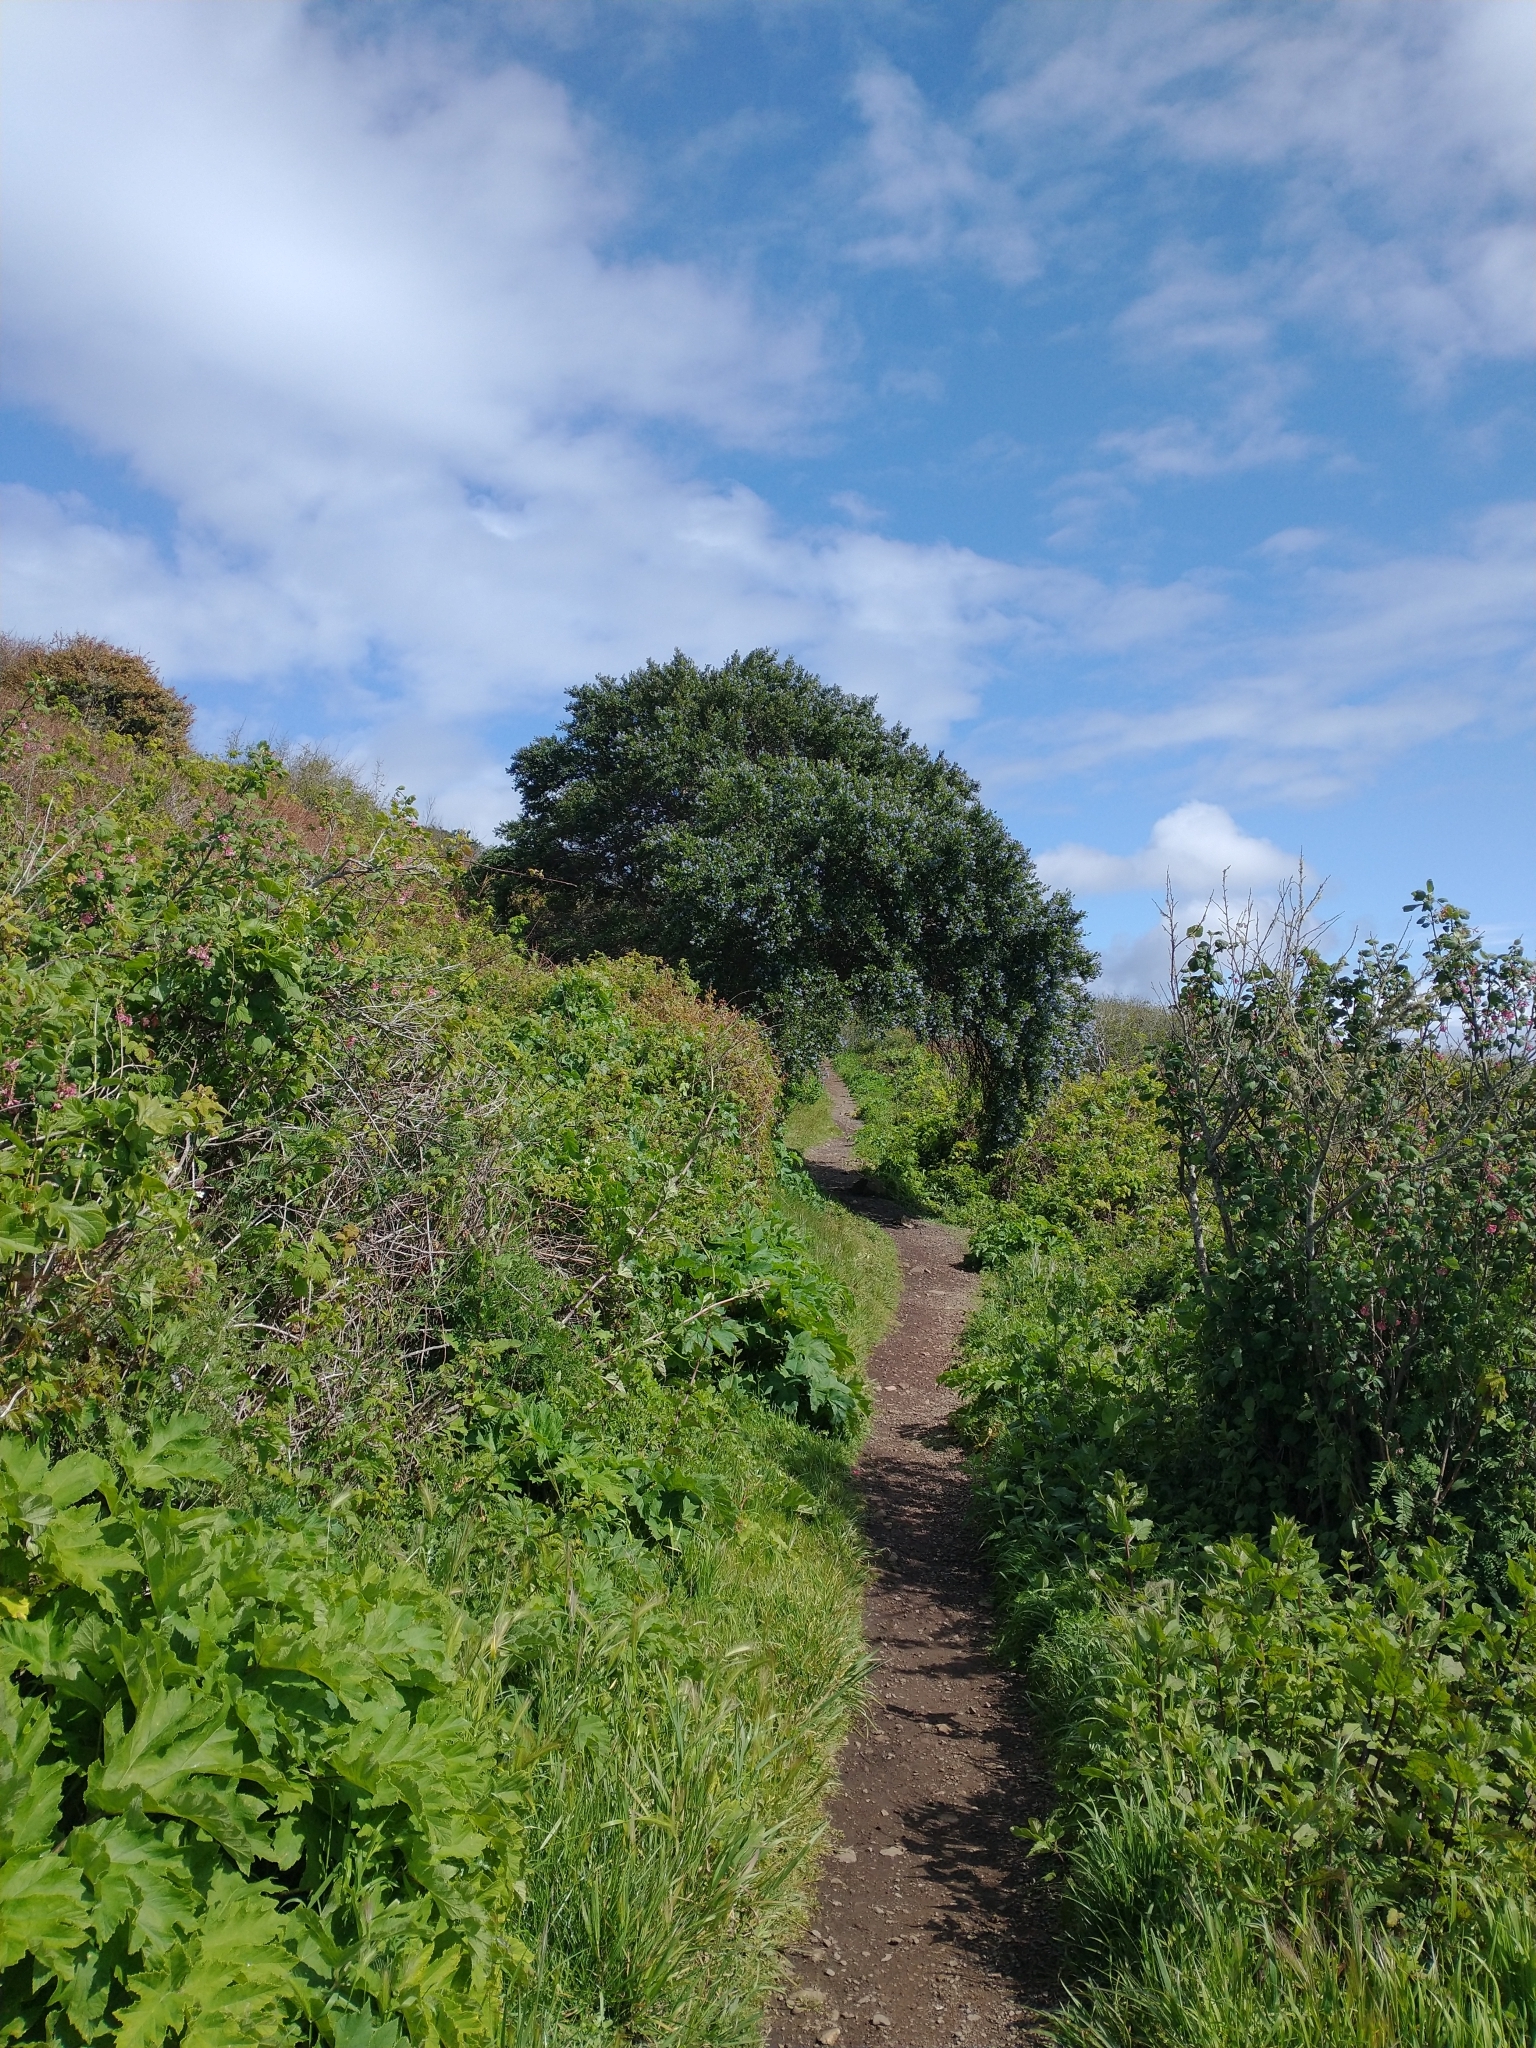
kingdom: Plantae
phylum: Tracheophyta
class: Magnoliopsida
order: Rosales
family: Rhamnaceae
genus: Ceanothus
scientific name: Ceanothus thyrsiflorus
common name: California-lilac
